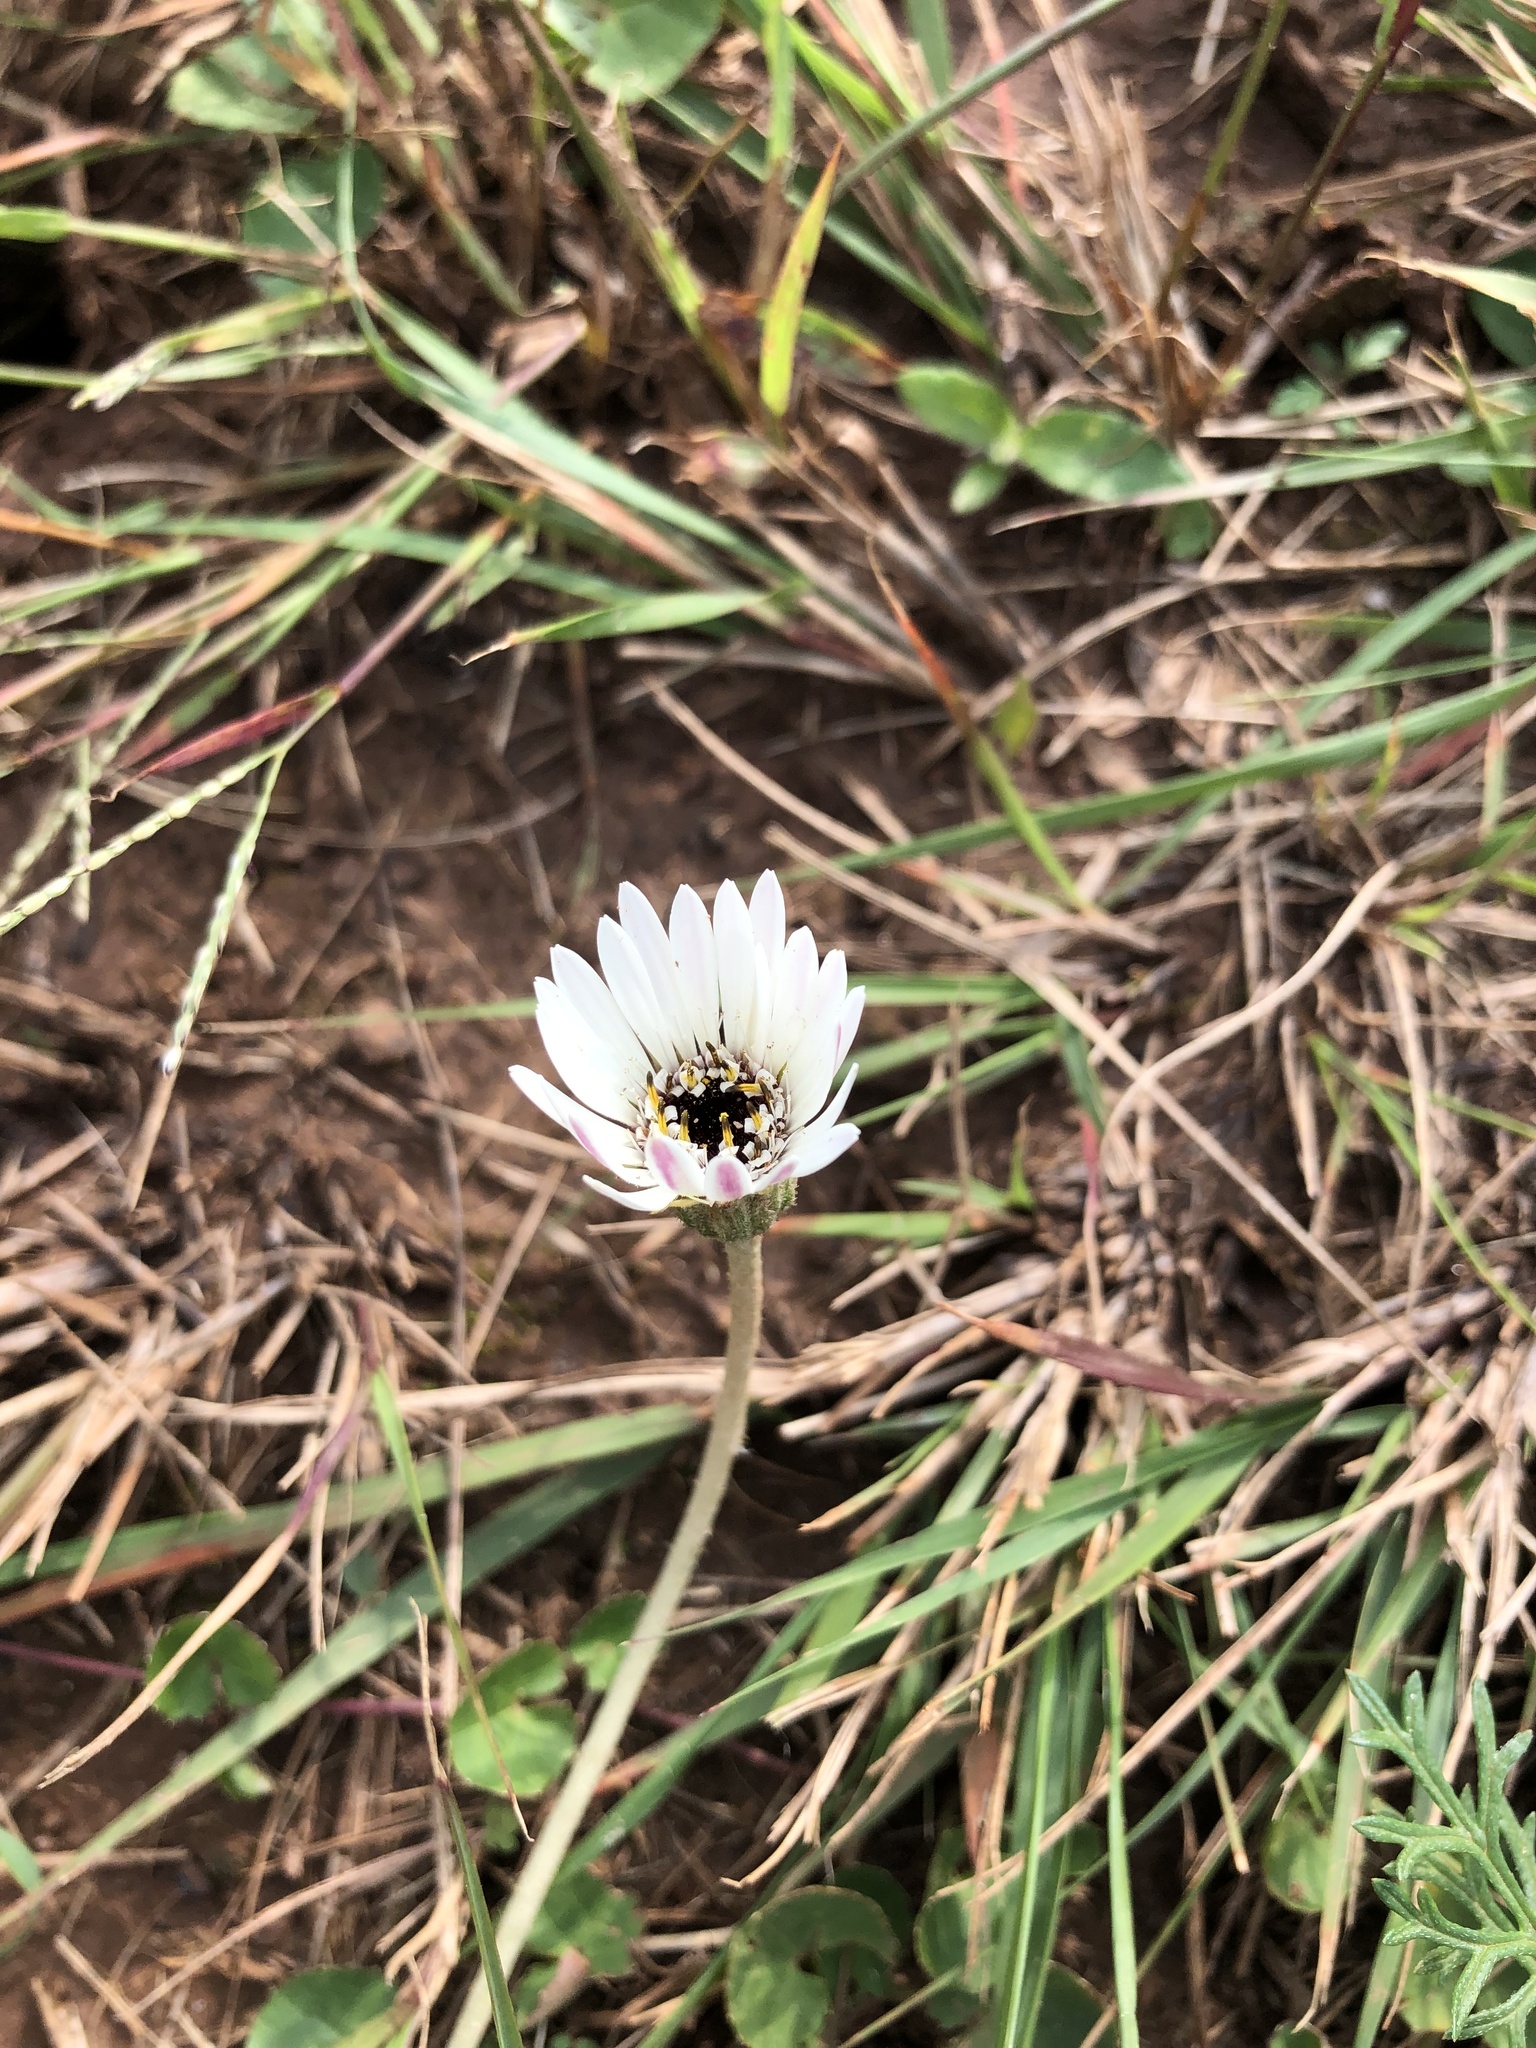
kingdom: Plantae
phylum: Tracheophyta
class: Magnoliopsida
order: Asterales
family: Asteraceae
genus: Gerbera
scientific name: Gerbera ambigua
